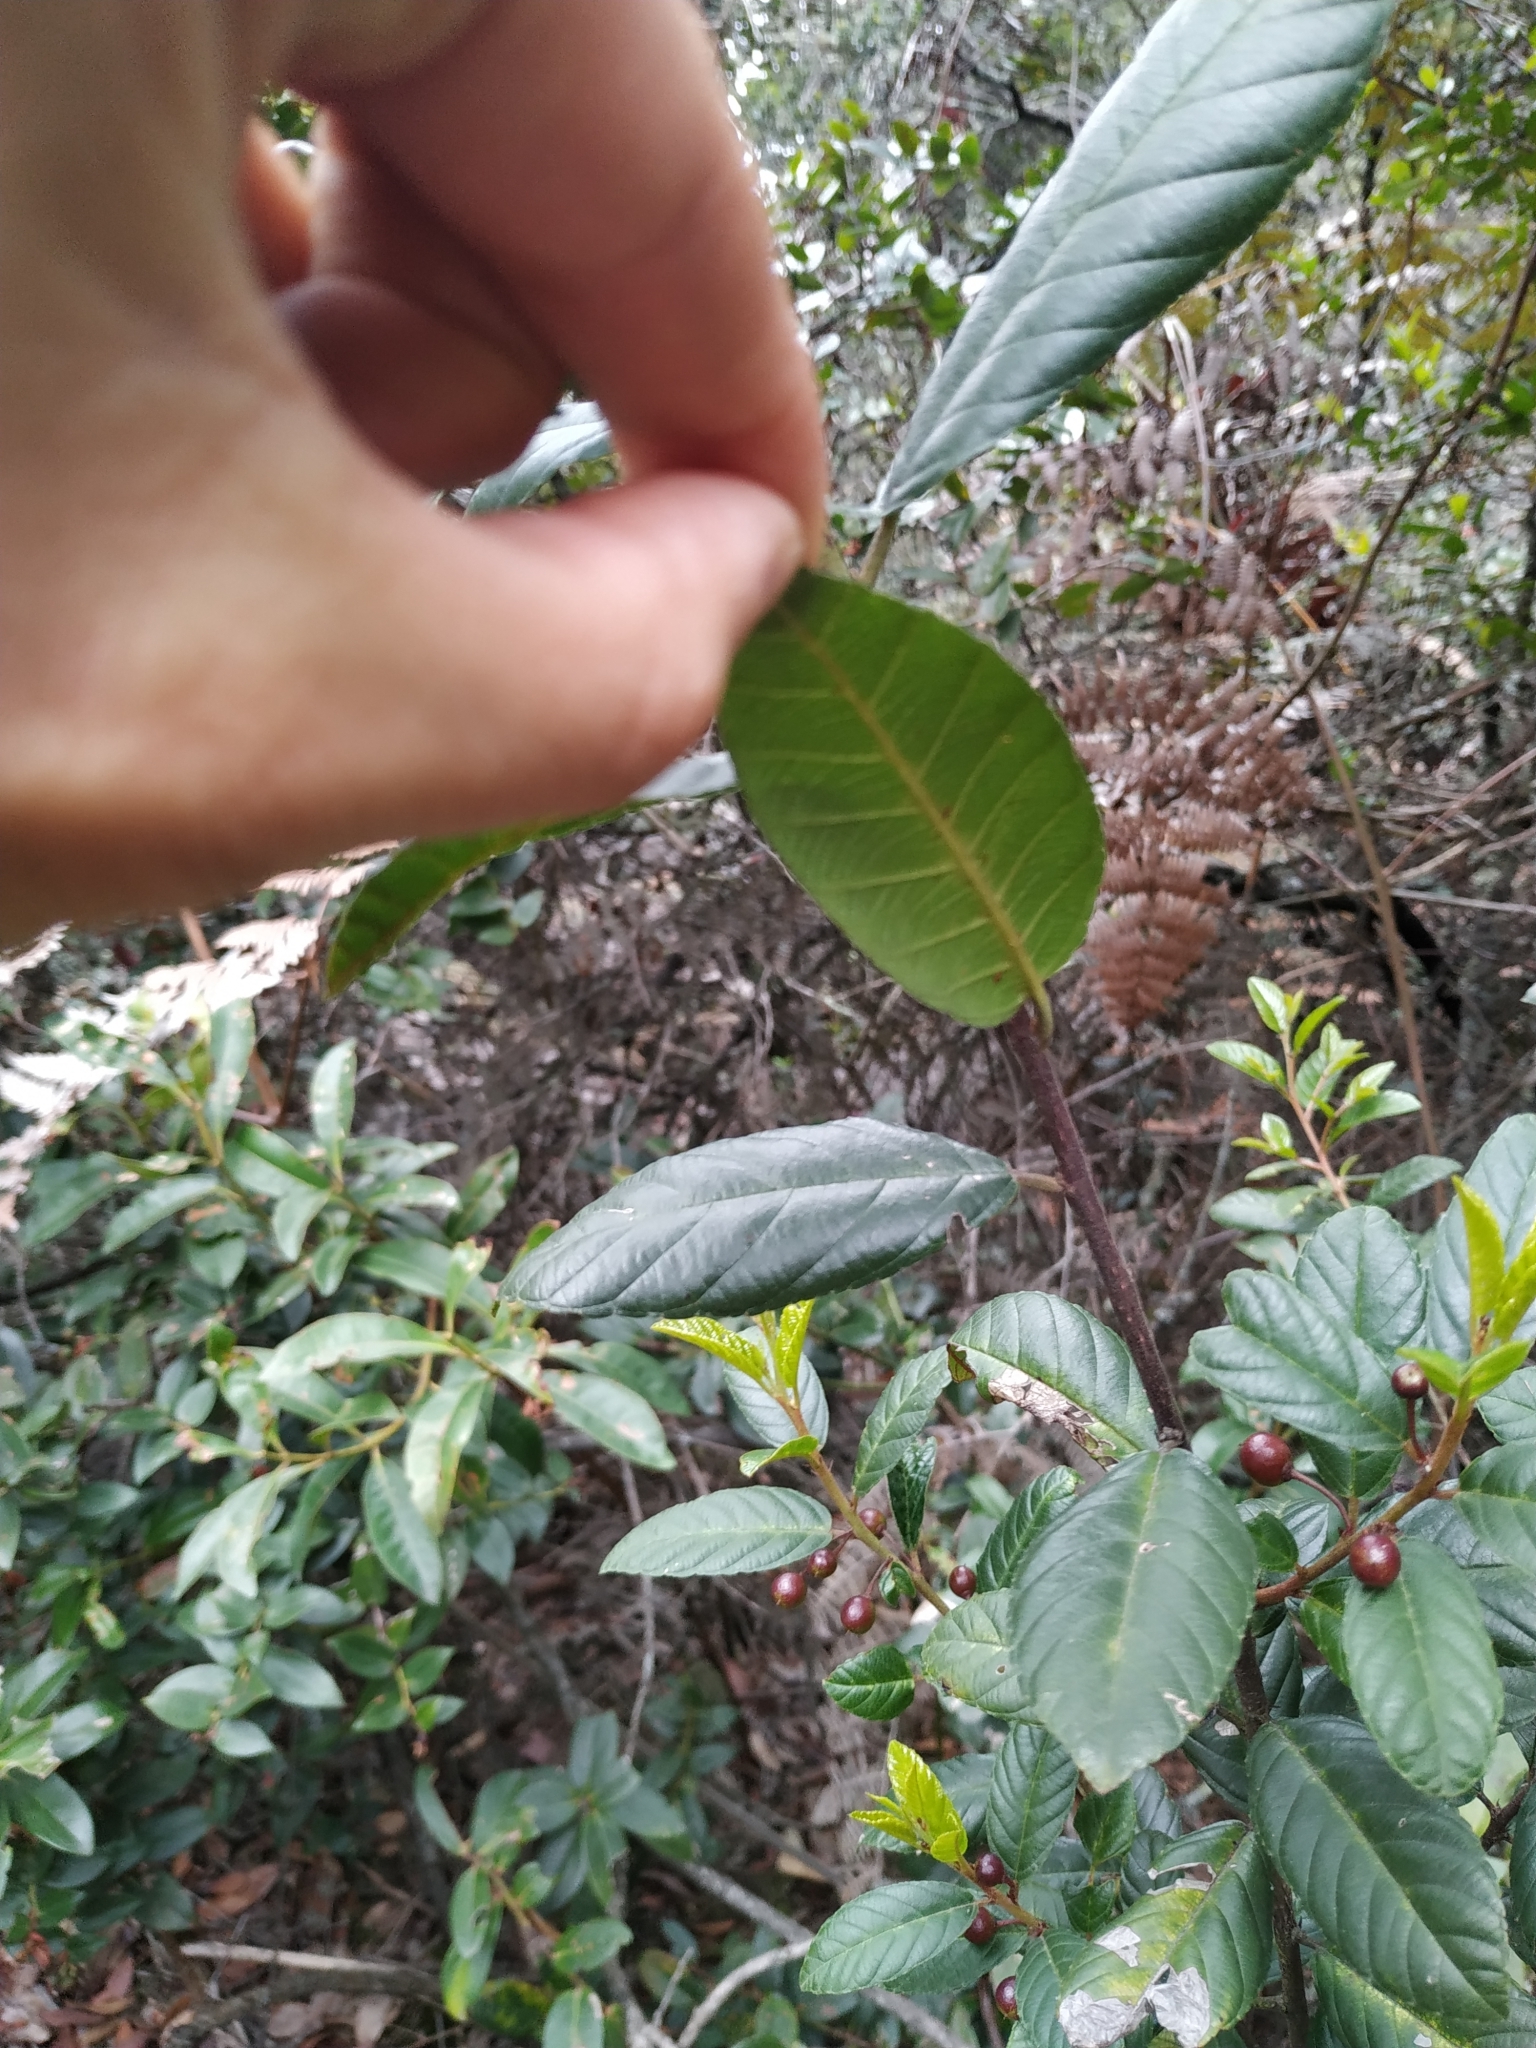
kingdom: Plantae
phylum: Tracheophyta
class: Magnoliopsida
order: Rosales
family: Rhamnaceae
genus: Frangula
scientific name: Frangula goudotiana
